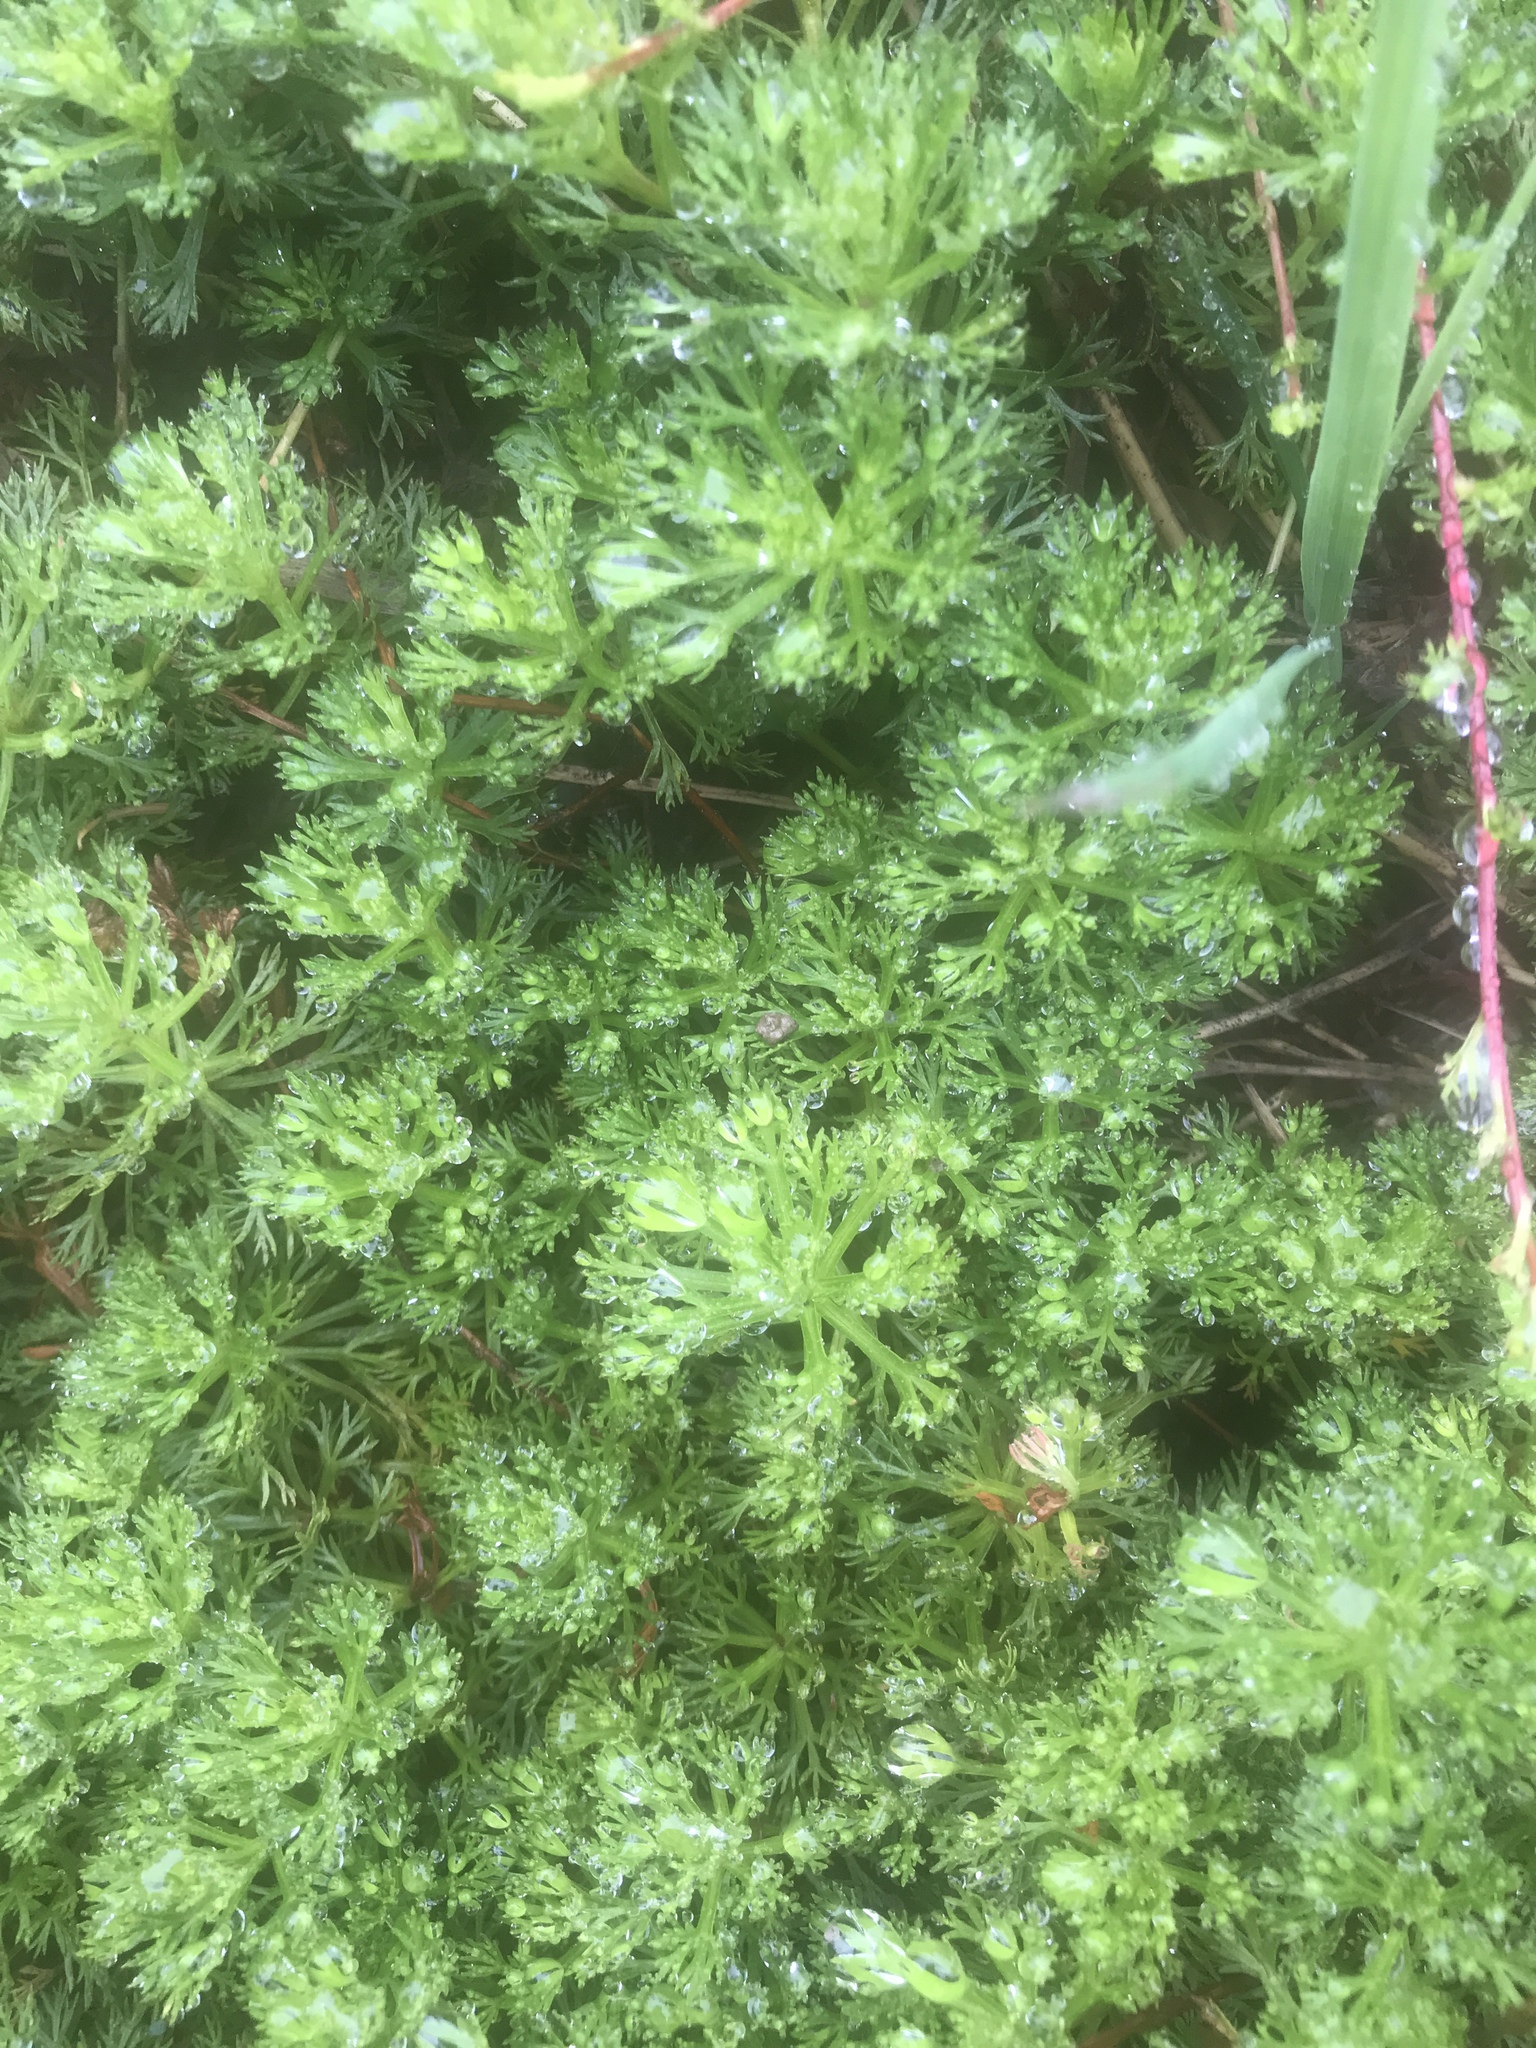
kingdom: Plantae
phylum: Tracheophyta
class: Magnoliopsida
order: Rosales
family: Rosaceae
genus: Luetkea
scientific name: Luetkea pectinata
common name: Partridgefoot
